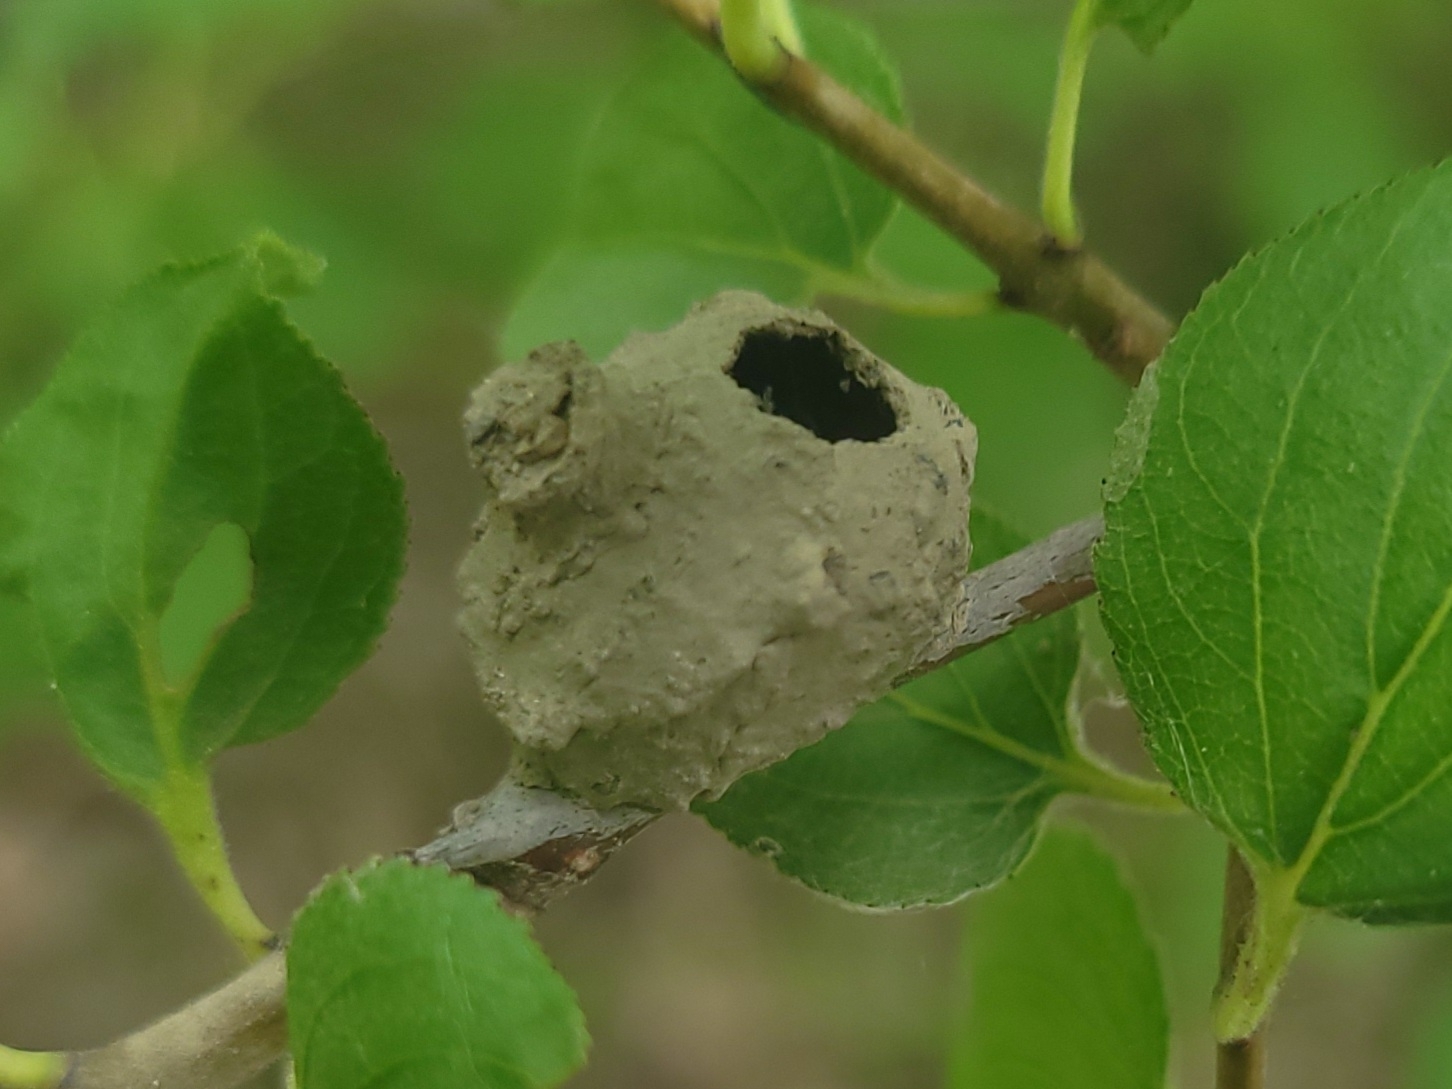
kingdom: Animalia
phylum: Arthropoda
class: Insecta
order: Hymenoptera
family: Vespidae
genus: Eumenes
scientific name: Eumenes
